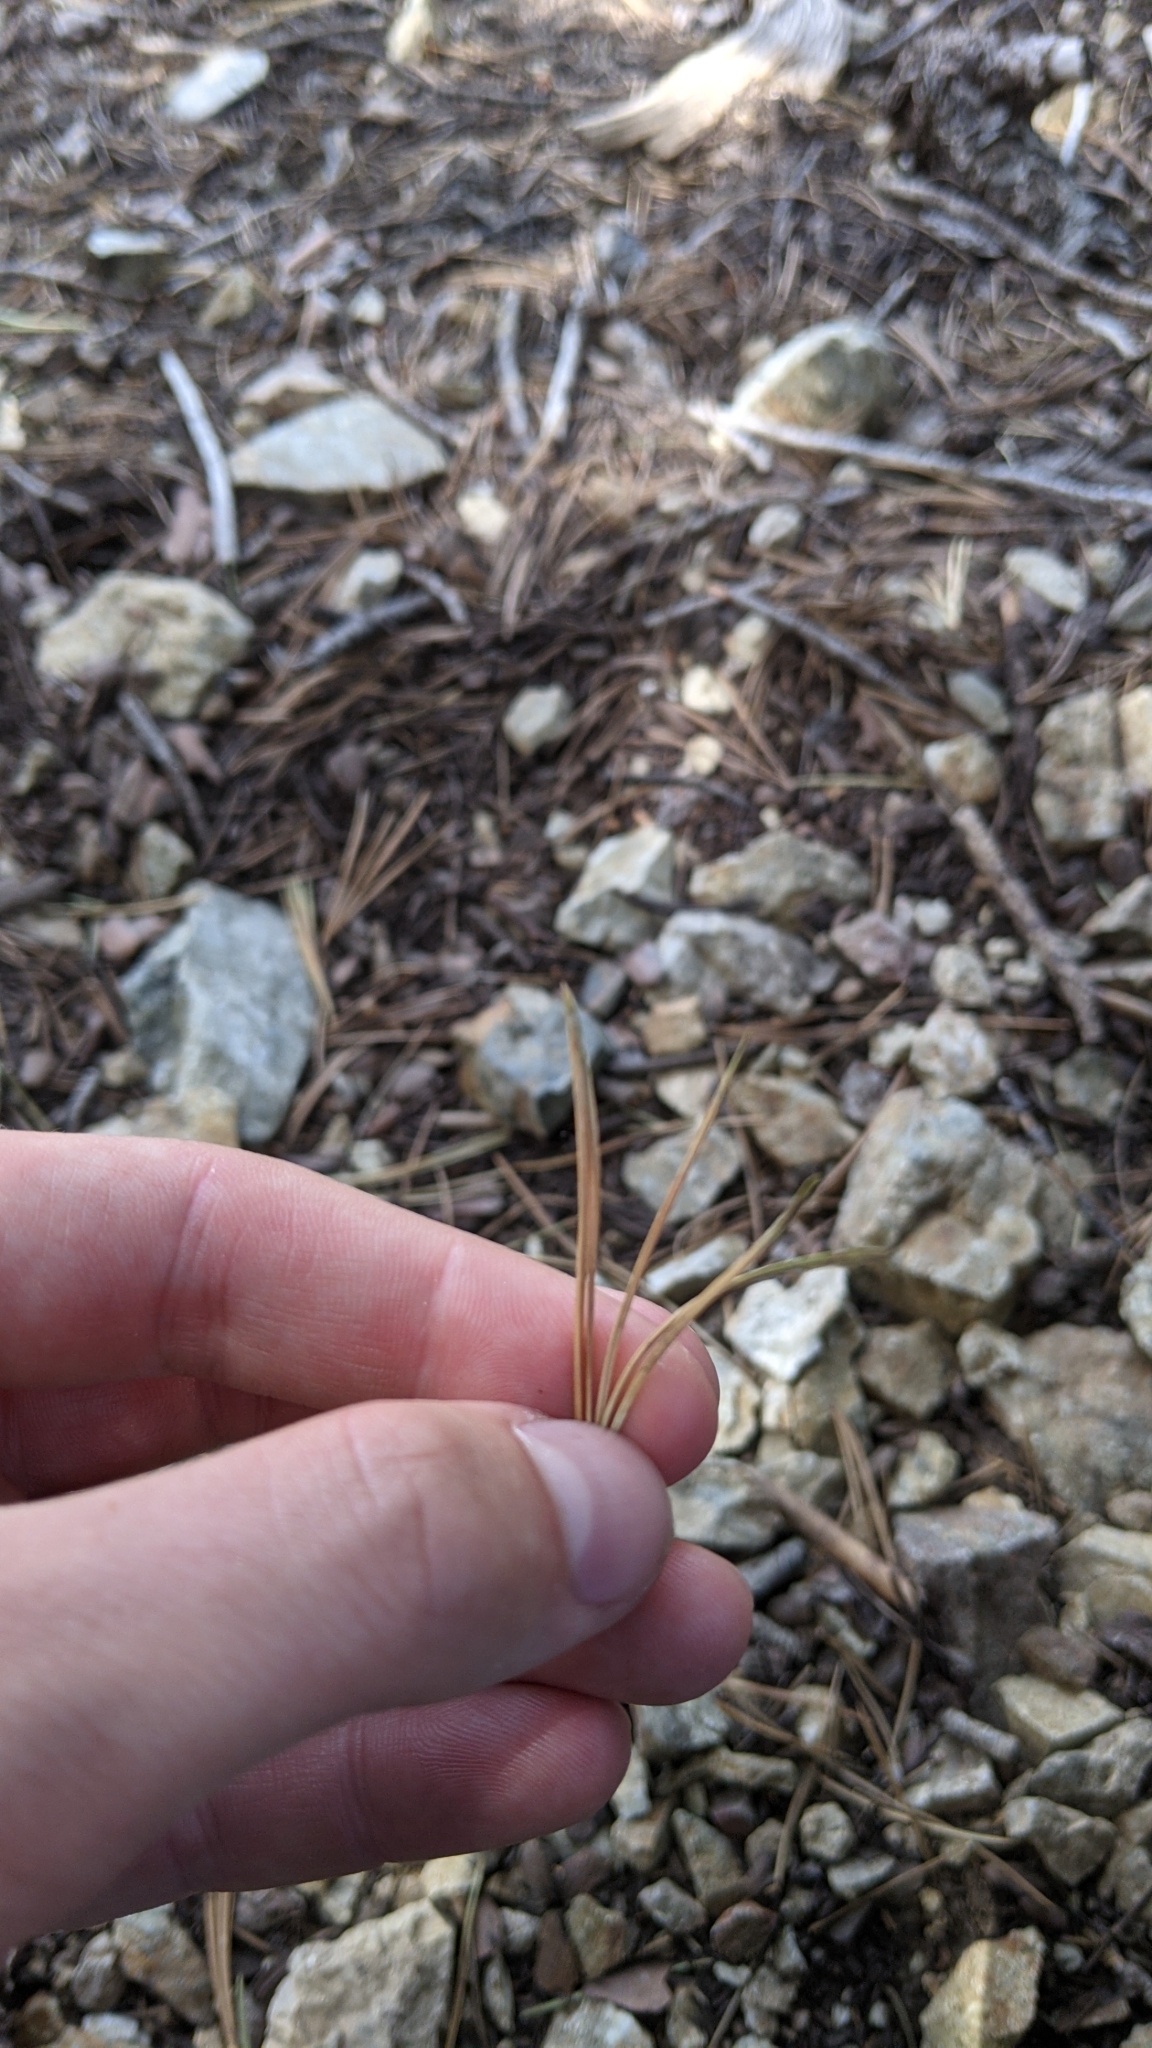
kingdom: Plantae
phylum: Tracheophyta
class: Pinopsida
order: Pinales
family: Pinaceae
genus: Pinus
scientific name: Pinus lambertiana
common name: Sugar pine
